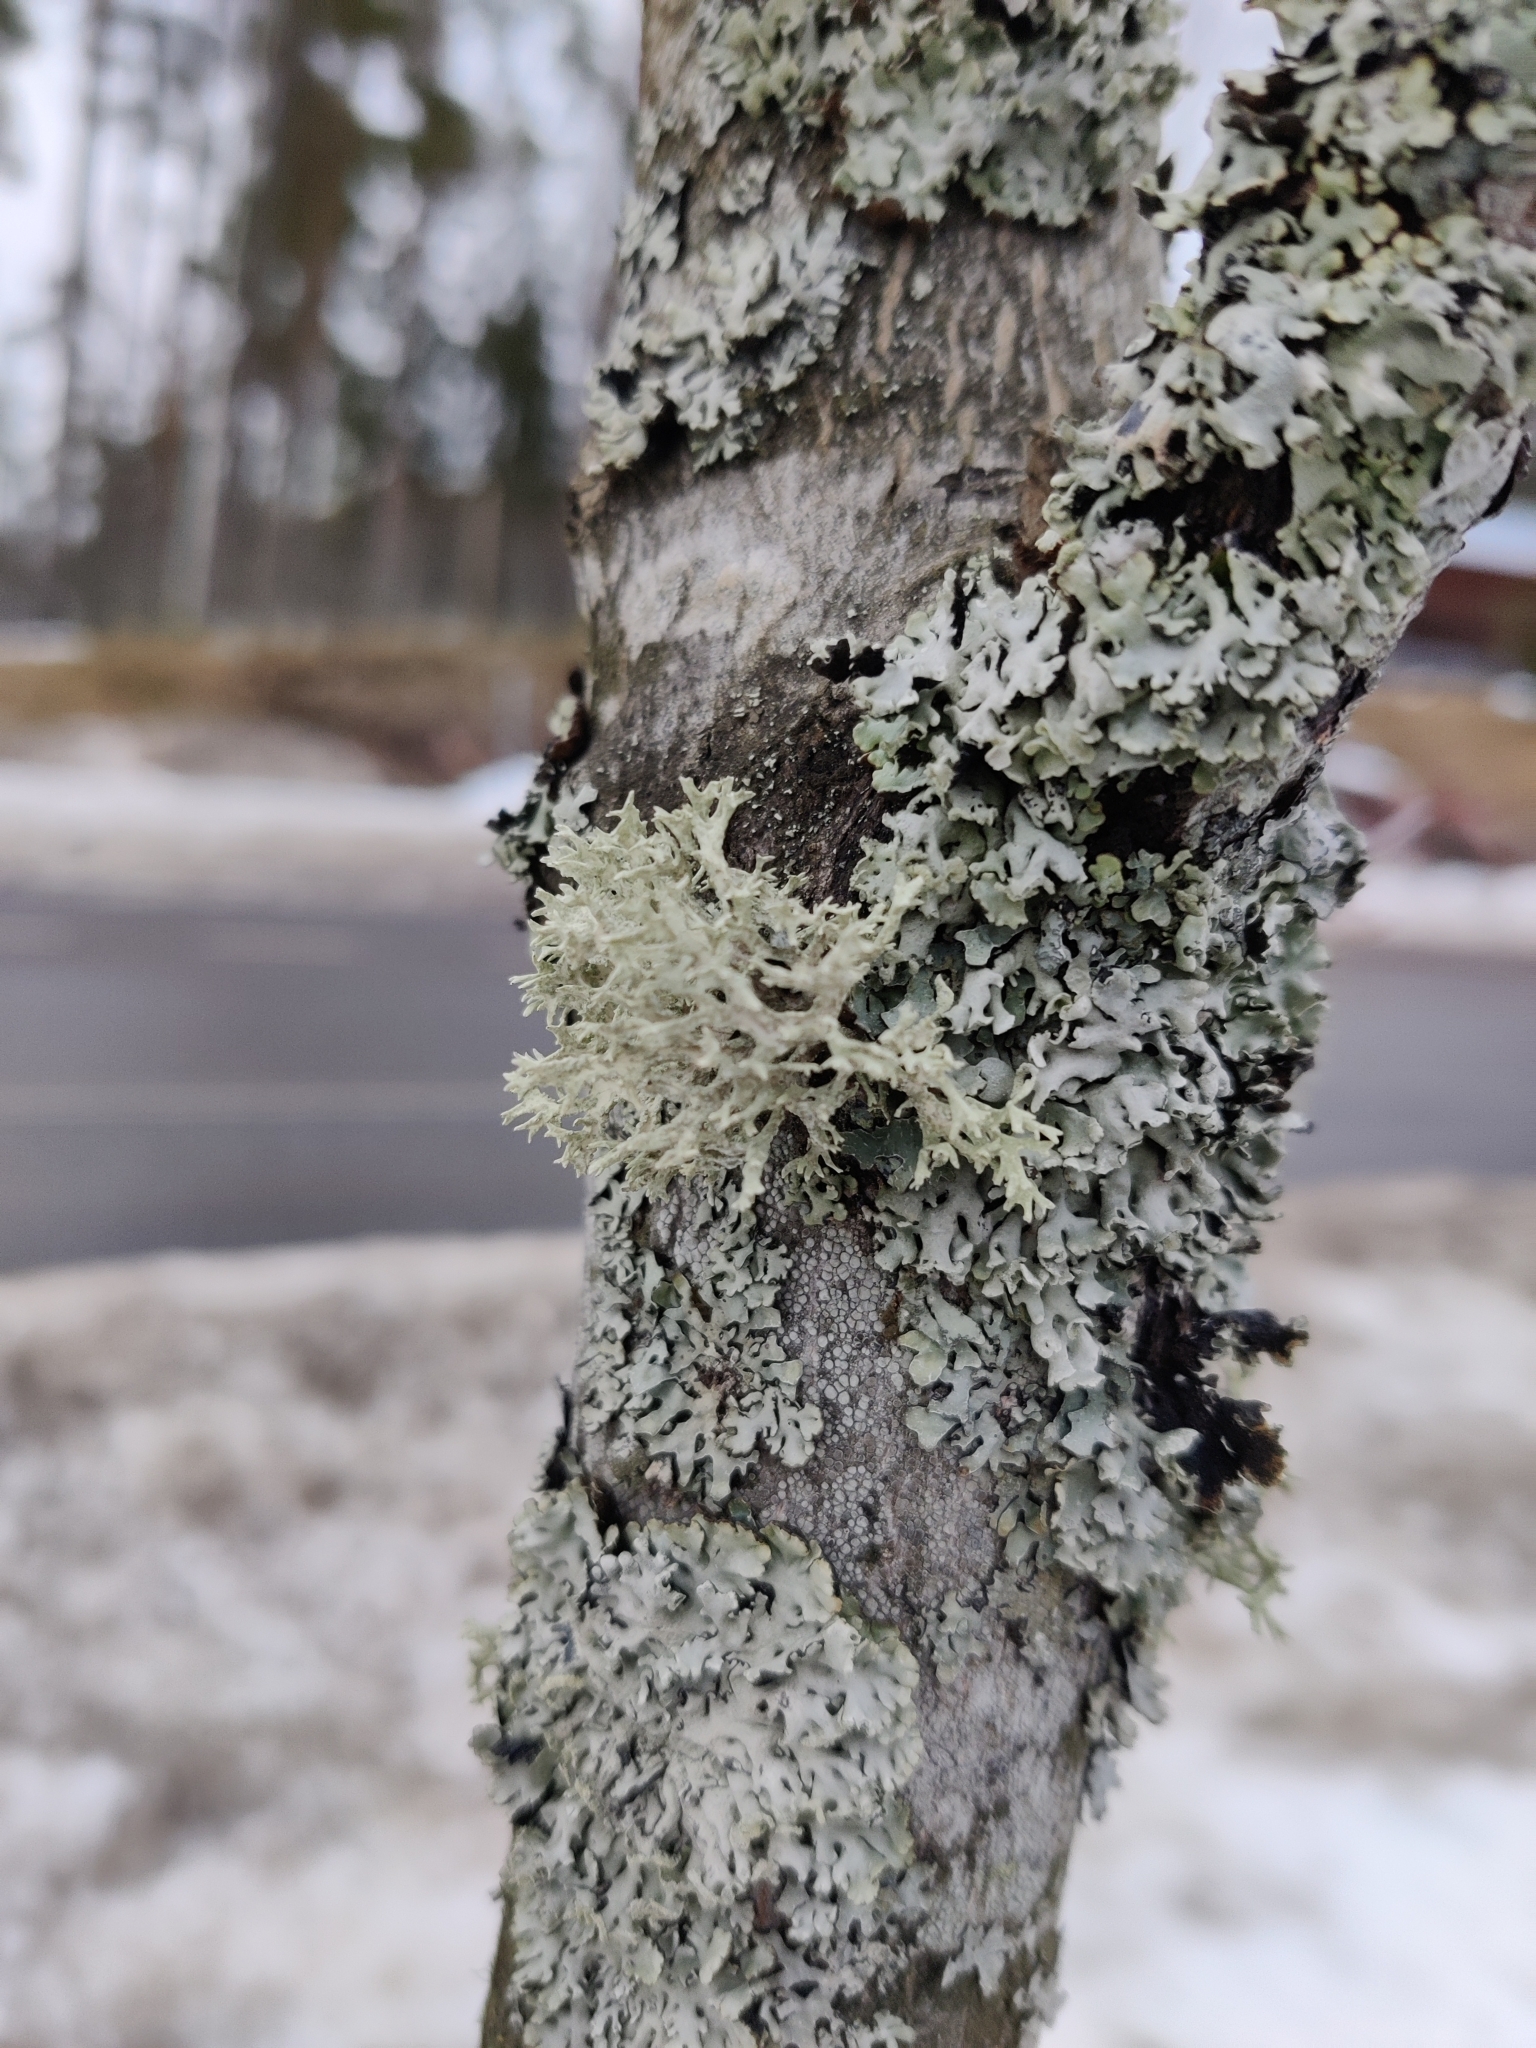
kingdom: Fungi
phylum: Ascomycota
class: Lecanoromycetes
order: Lecanorales
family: Parmeliaceae
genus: Evernia
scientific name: Evernia prunastri
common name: Oak moss
